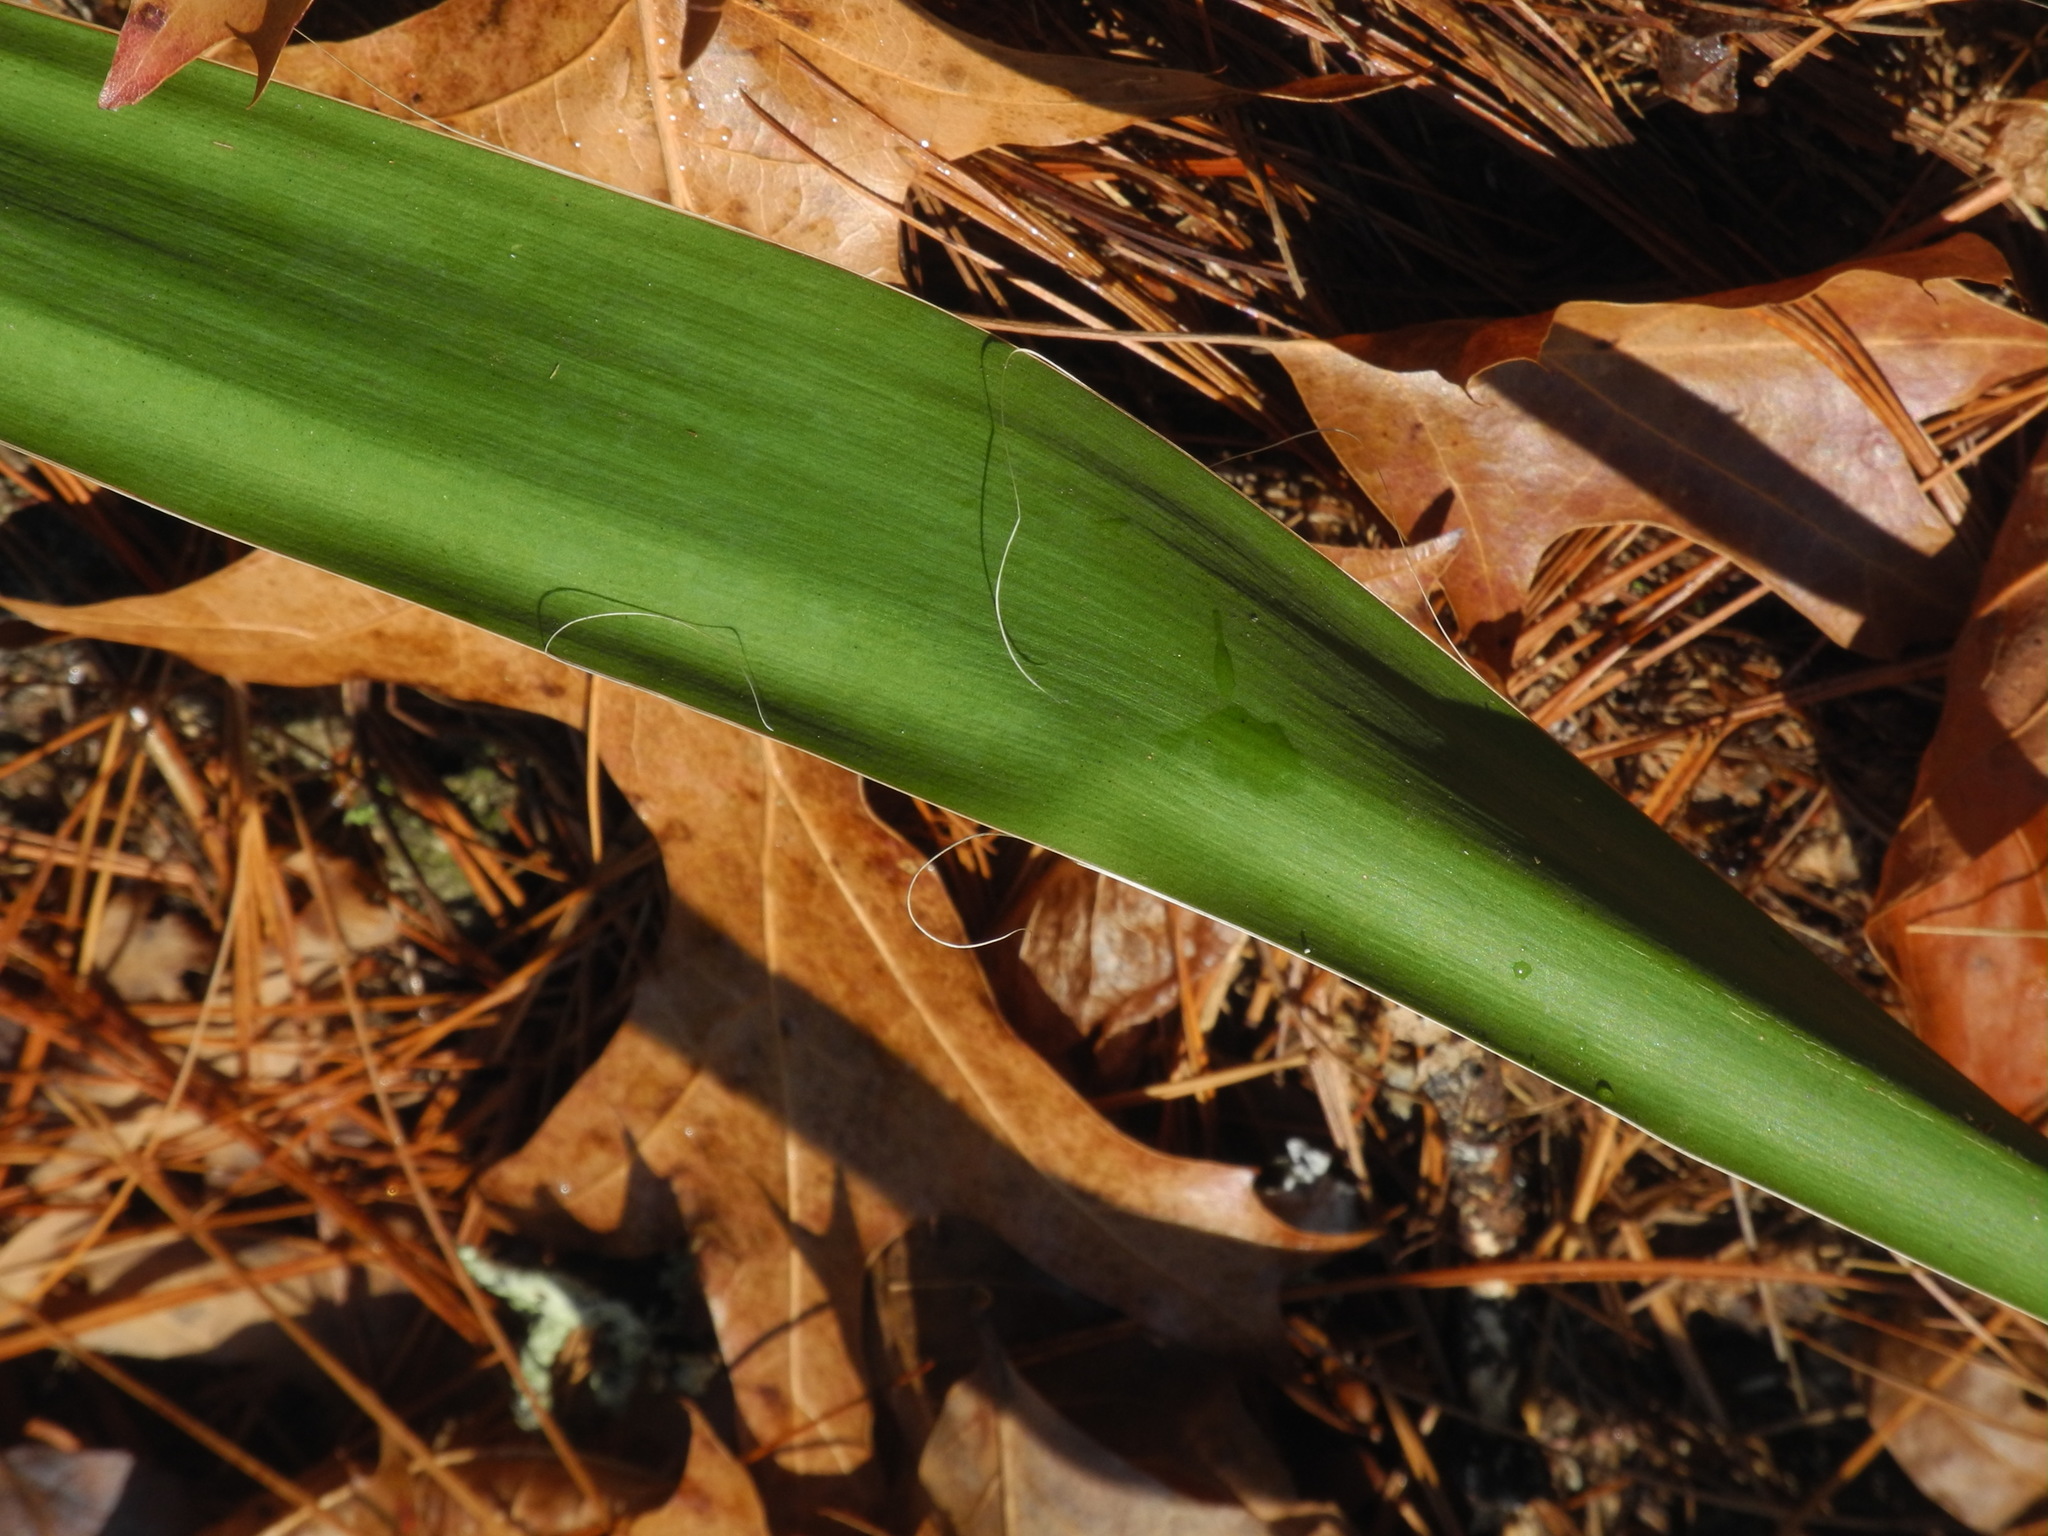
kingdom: Plantae
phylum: Tracheophyta
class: Liliopsida
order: Asparagales
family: Asparagaceae
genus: Yucca
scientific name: Yucca filamentosa
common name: Adam's-needle
